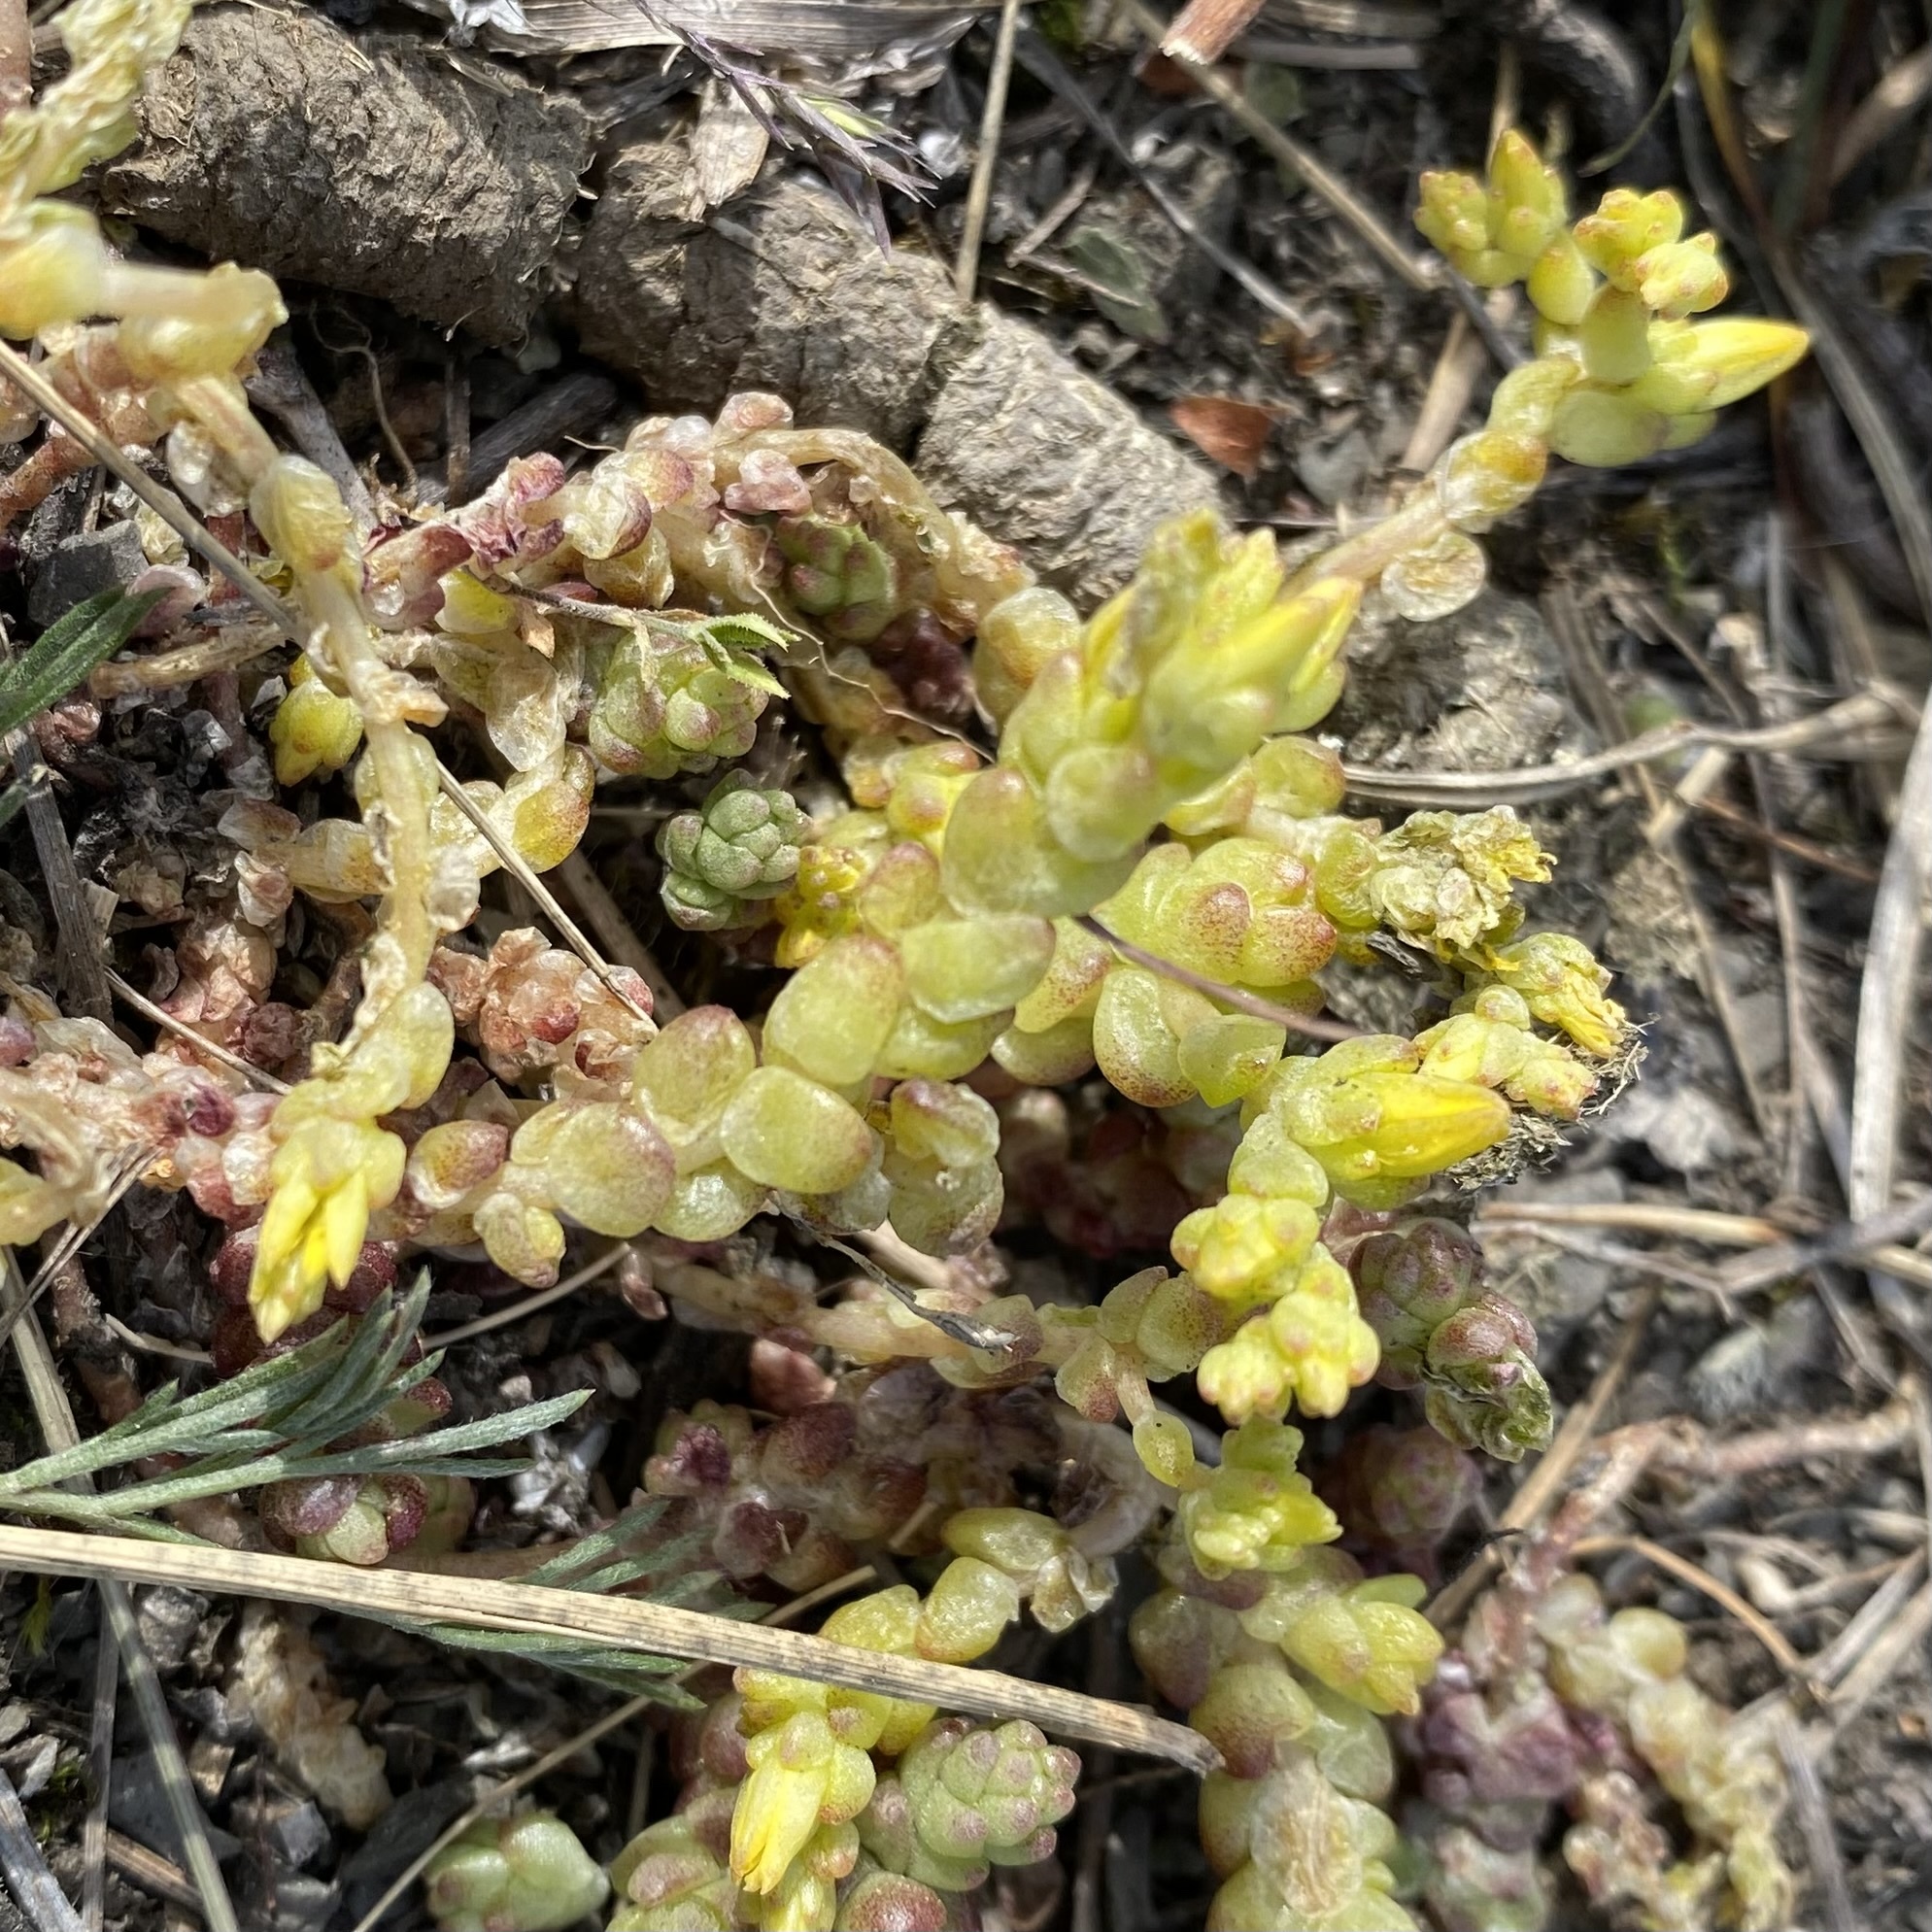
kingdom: Plantae
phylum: Tracheophyta
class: Magnoliopsida
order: Saxifragales
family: Crassulaceae
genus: Sedum
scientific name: Sedum acre
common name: Biting stonecrop
